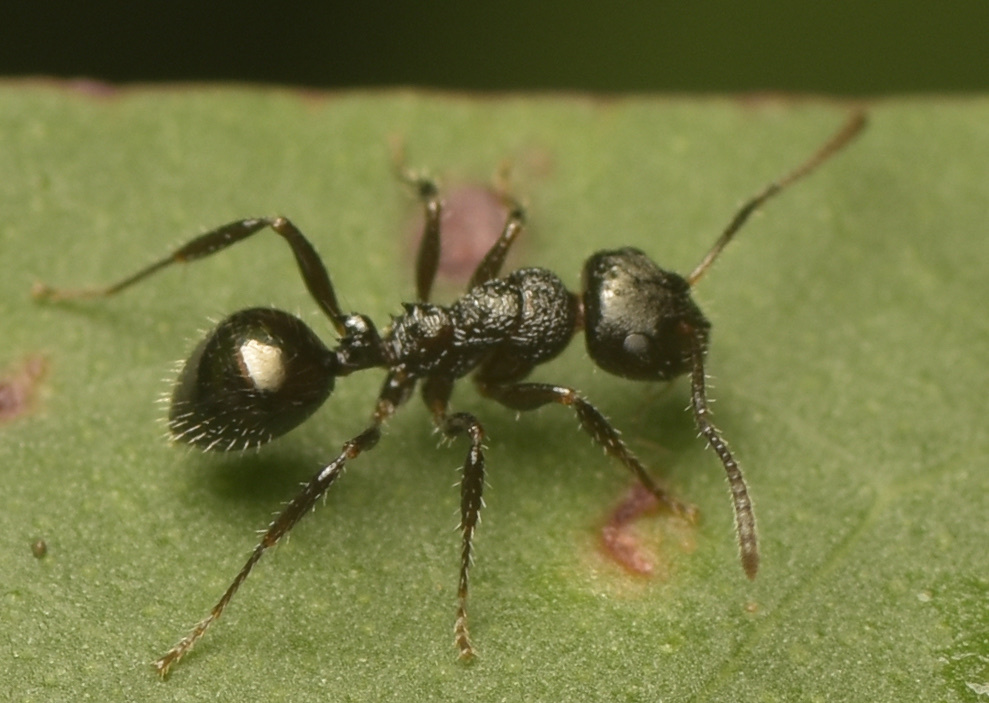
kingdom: Animalia
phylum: Arthropoda
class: Insecta
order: Hymenoptera
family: Formicidae
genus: Pseudonotoncus
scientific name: Pseudonotoncus hirsutus
